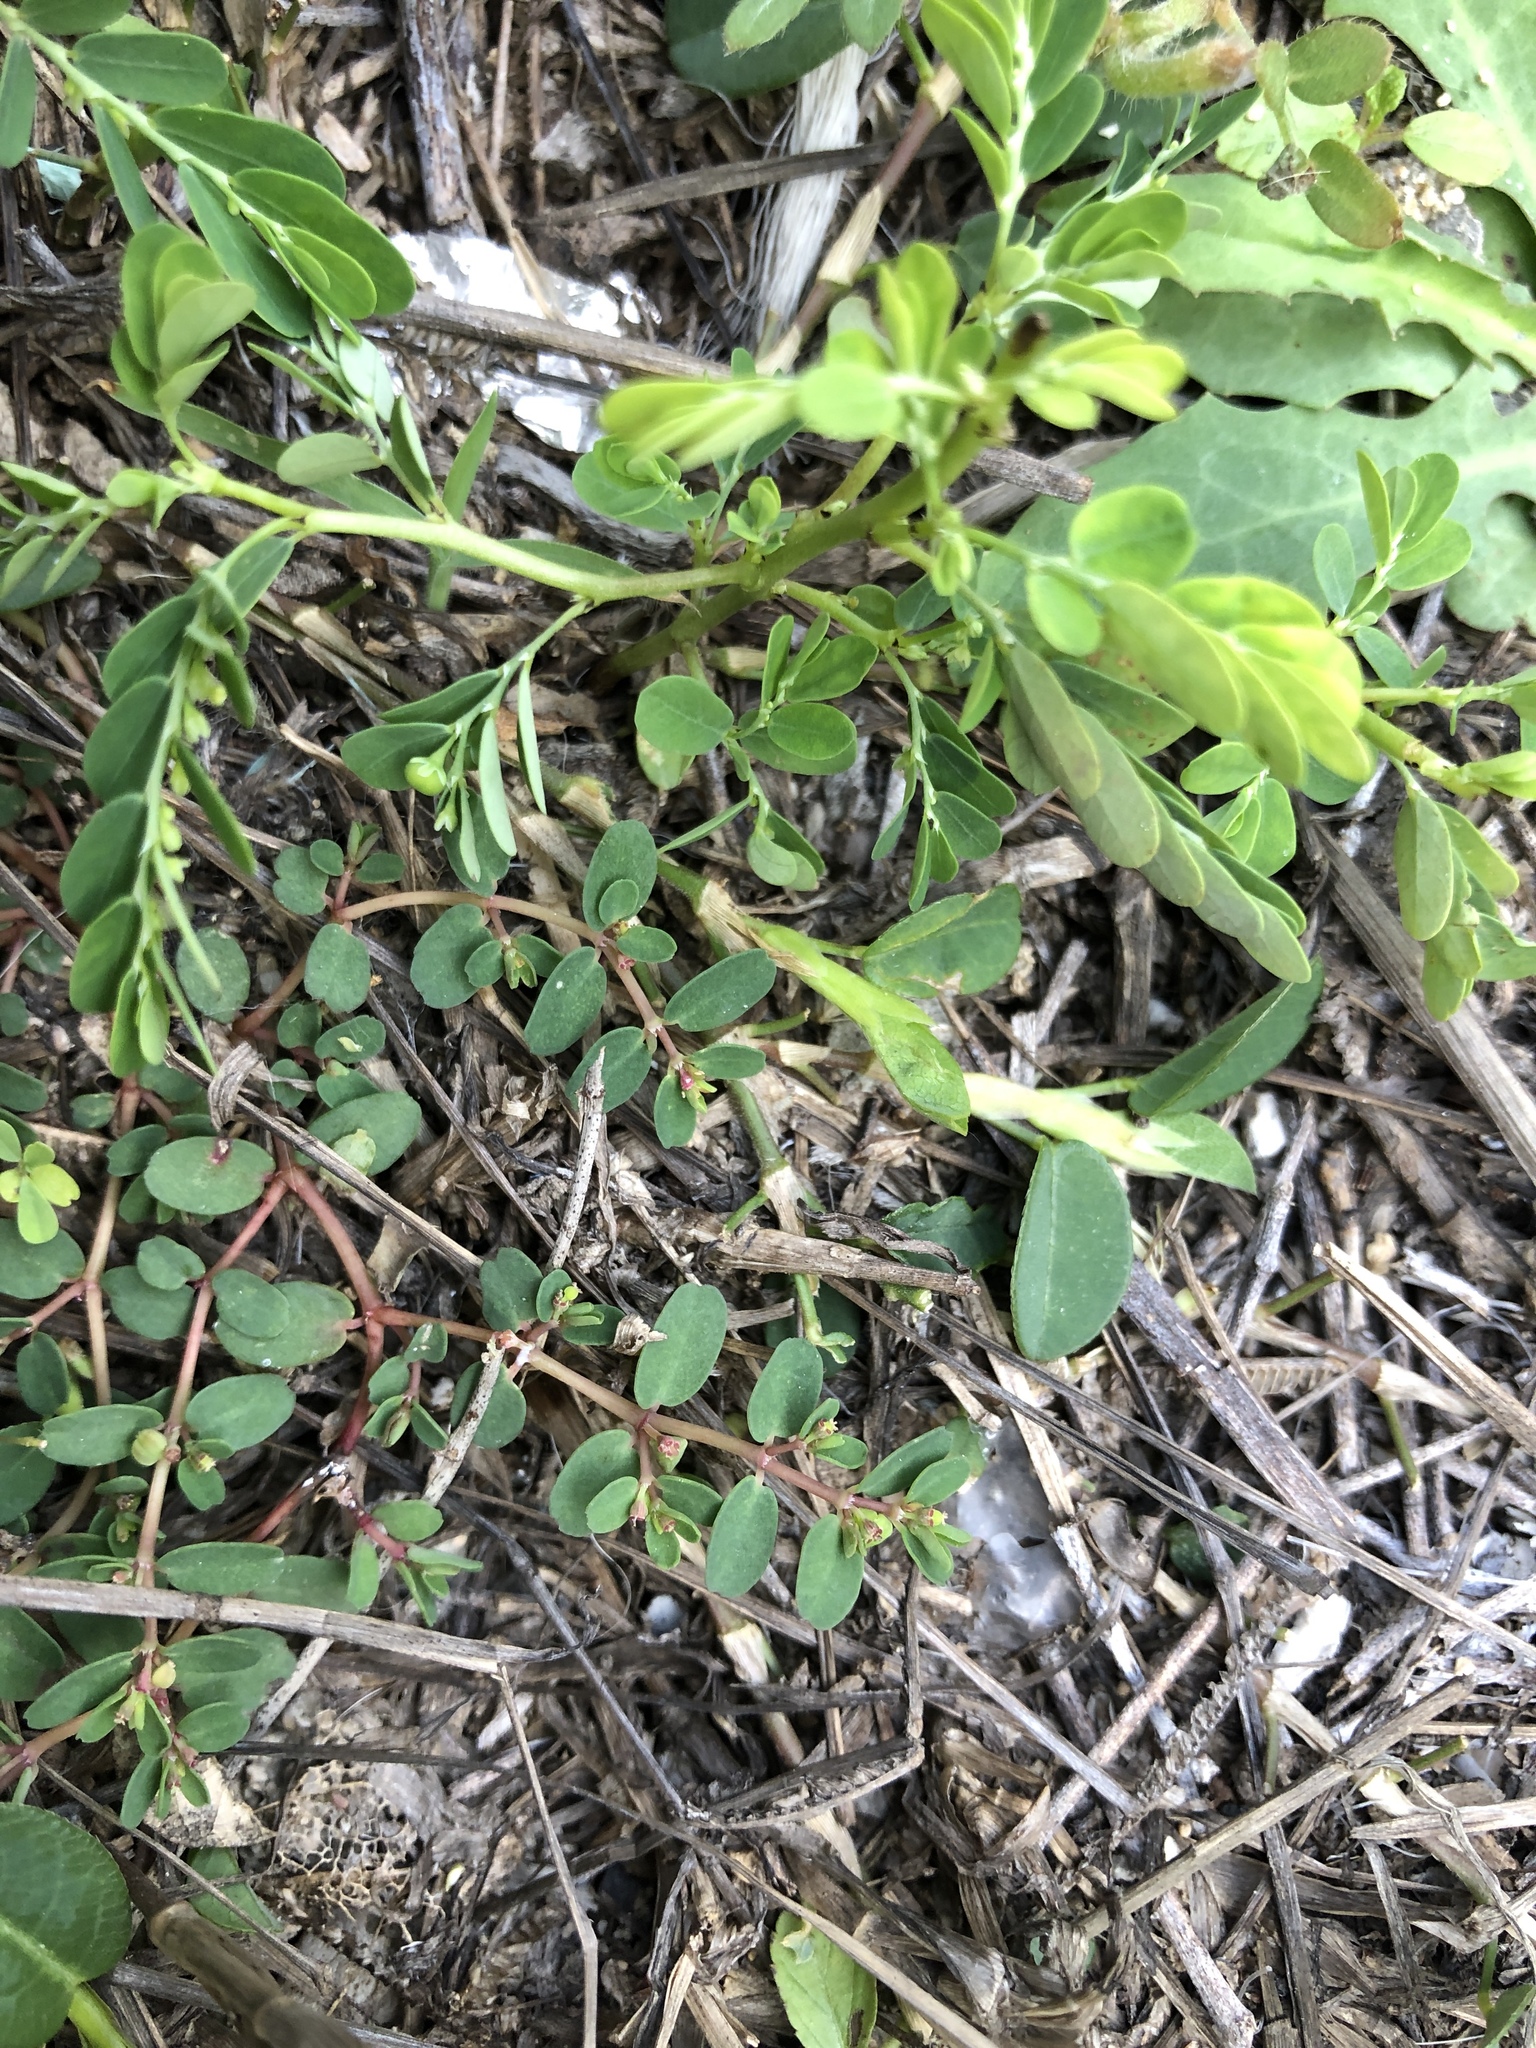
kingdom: Plantae
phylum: Tracheophyta
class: Magnoliopsida
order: Malpighiales
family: Euphorbiaceae
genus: Euphorbia
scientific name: Euphorbia taihsiensis
